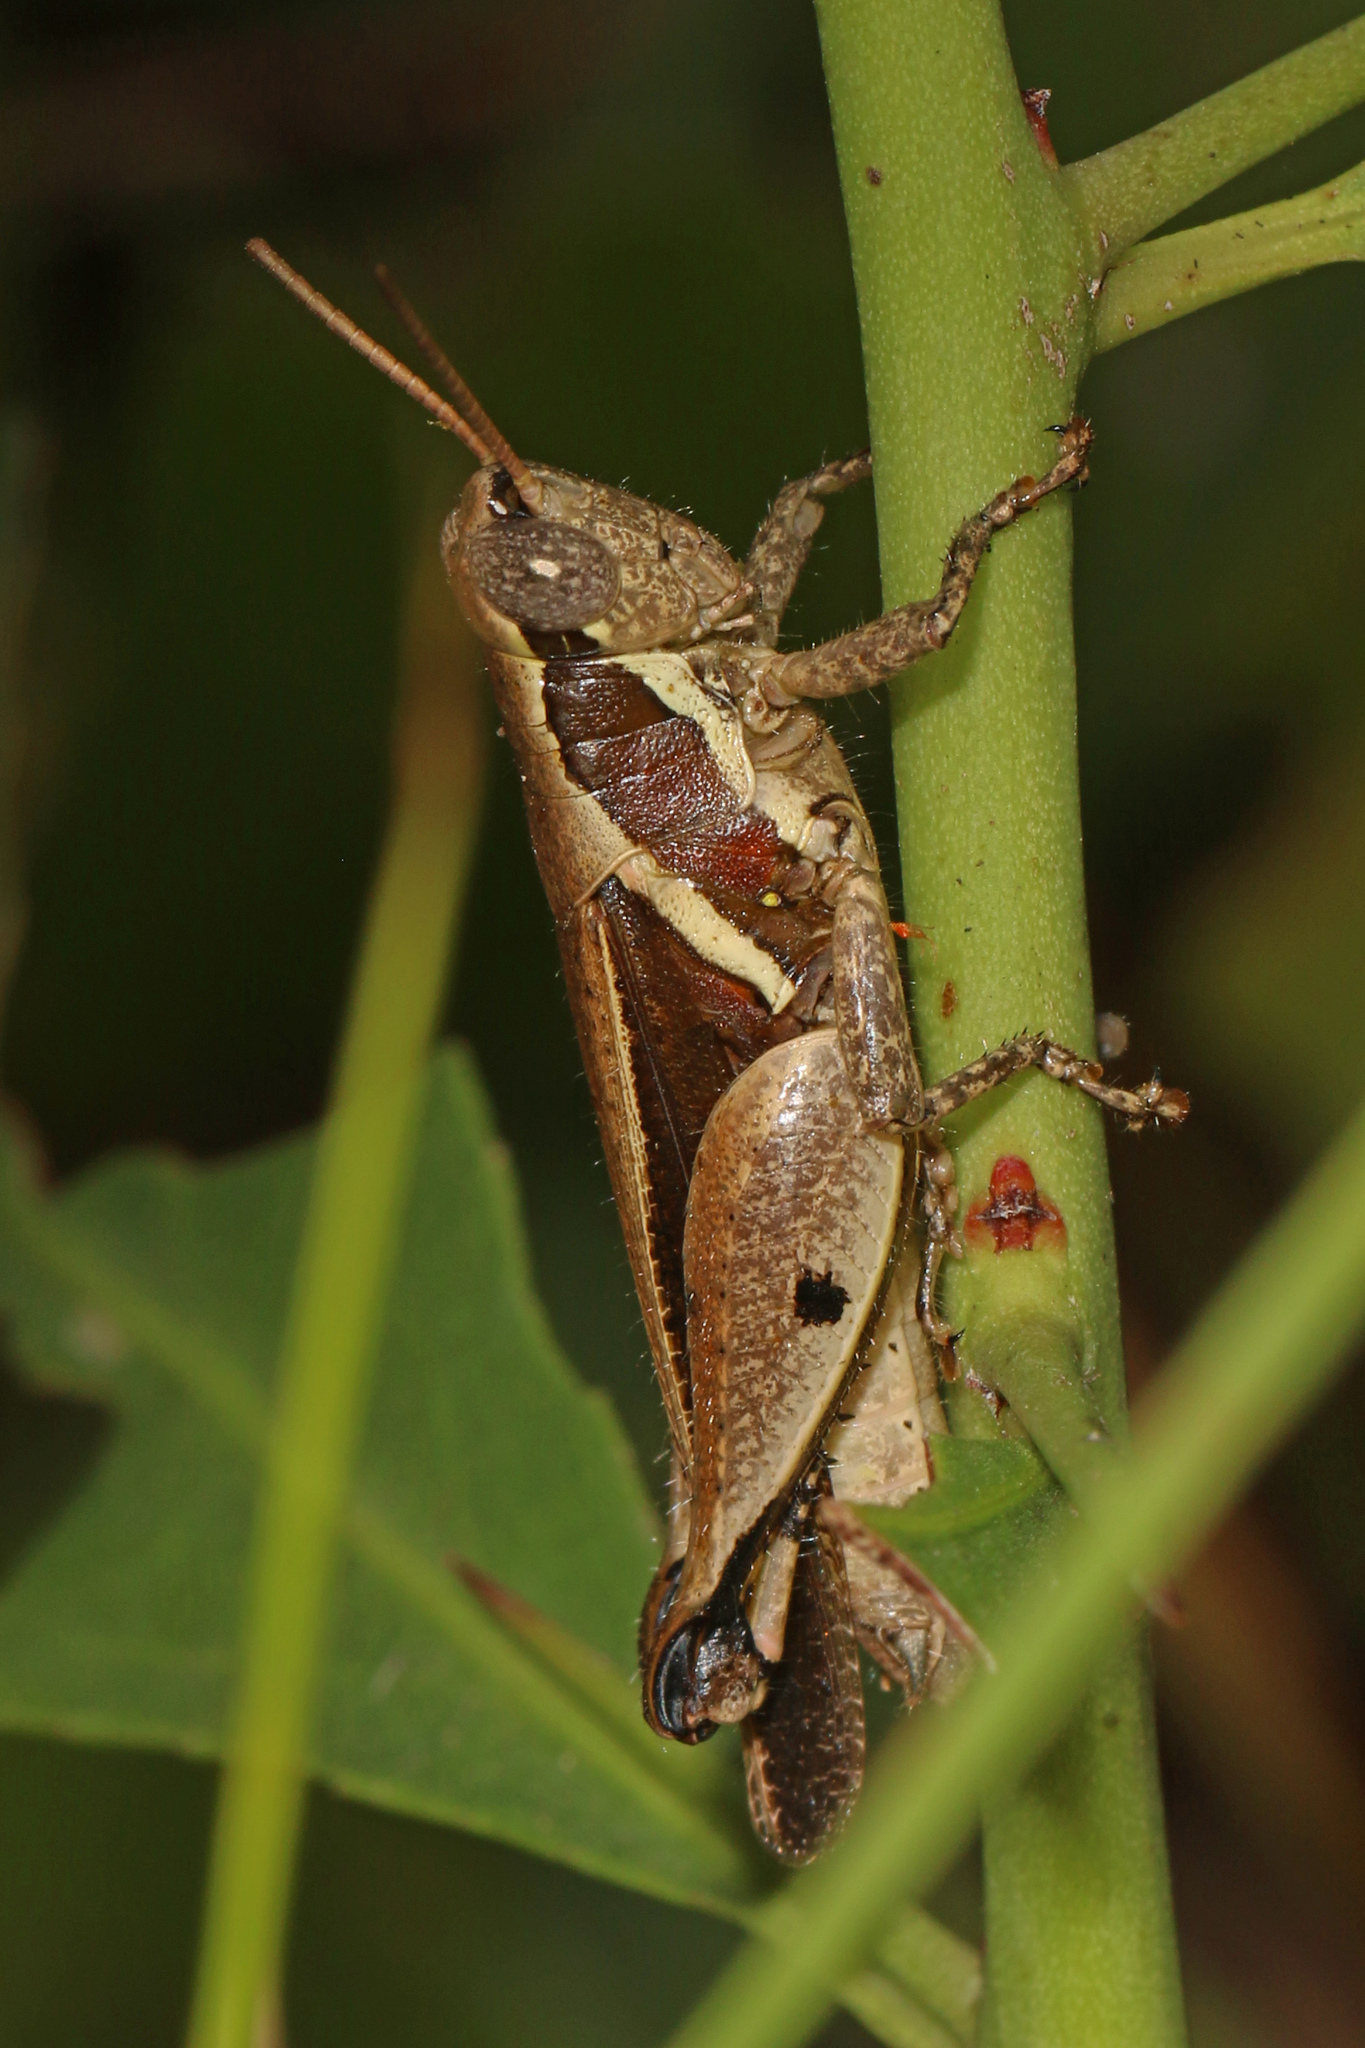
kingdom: Animalia
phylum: Arthropoda
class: Insecta
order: Orthoptera
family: Acrididae
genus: Phaeocatantops
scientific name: Phaeocatantops decoratus
